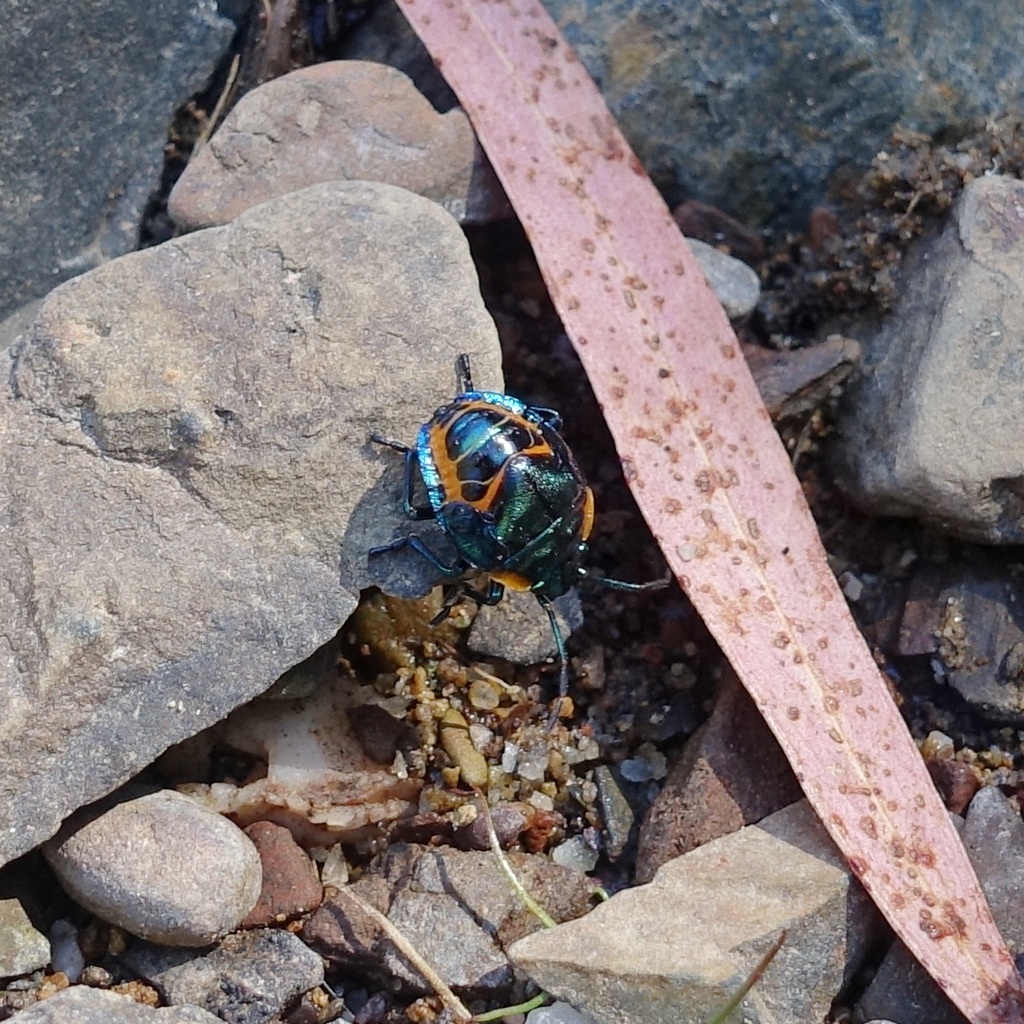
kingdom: Animalia
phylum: Arthropoda
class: Insecta
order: Hemiptera
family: Scutelleridae
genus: Scutiphora
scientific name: Scutiphora pedicellata
